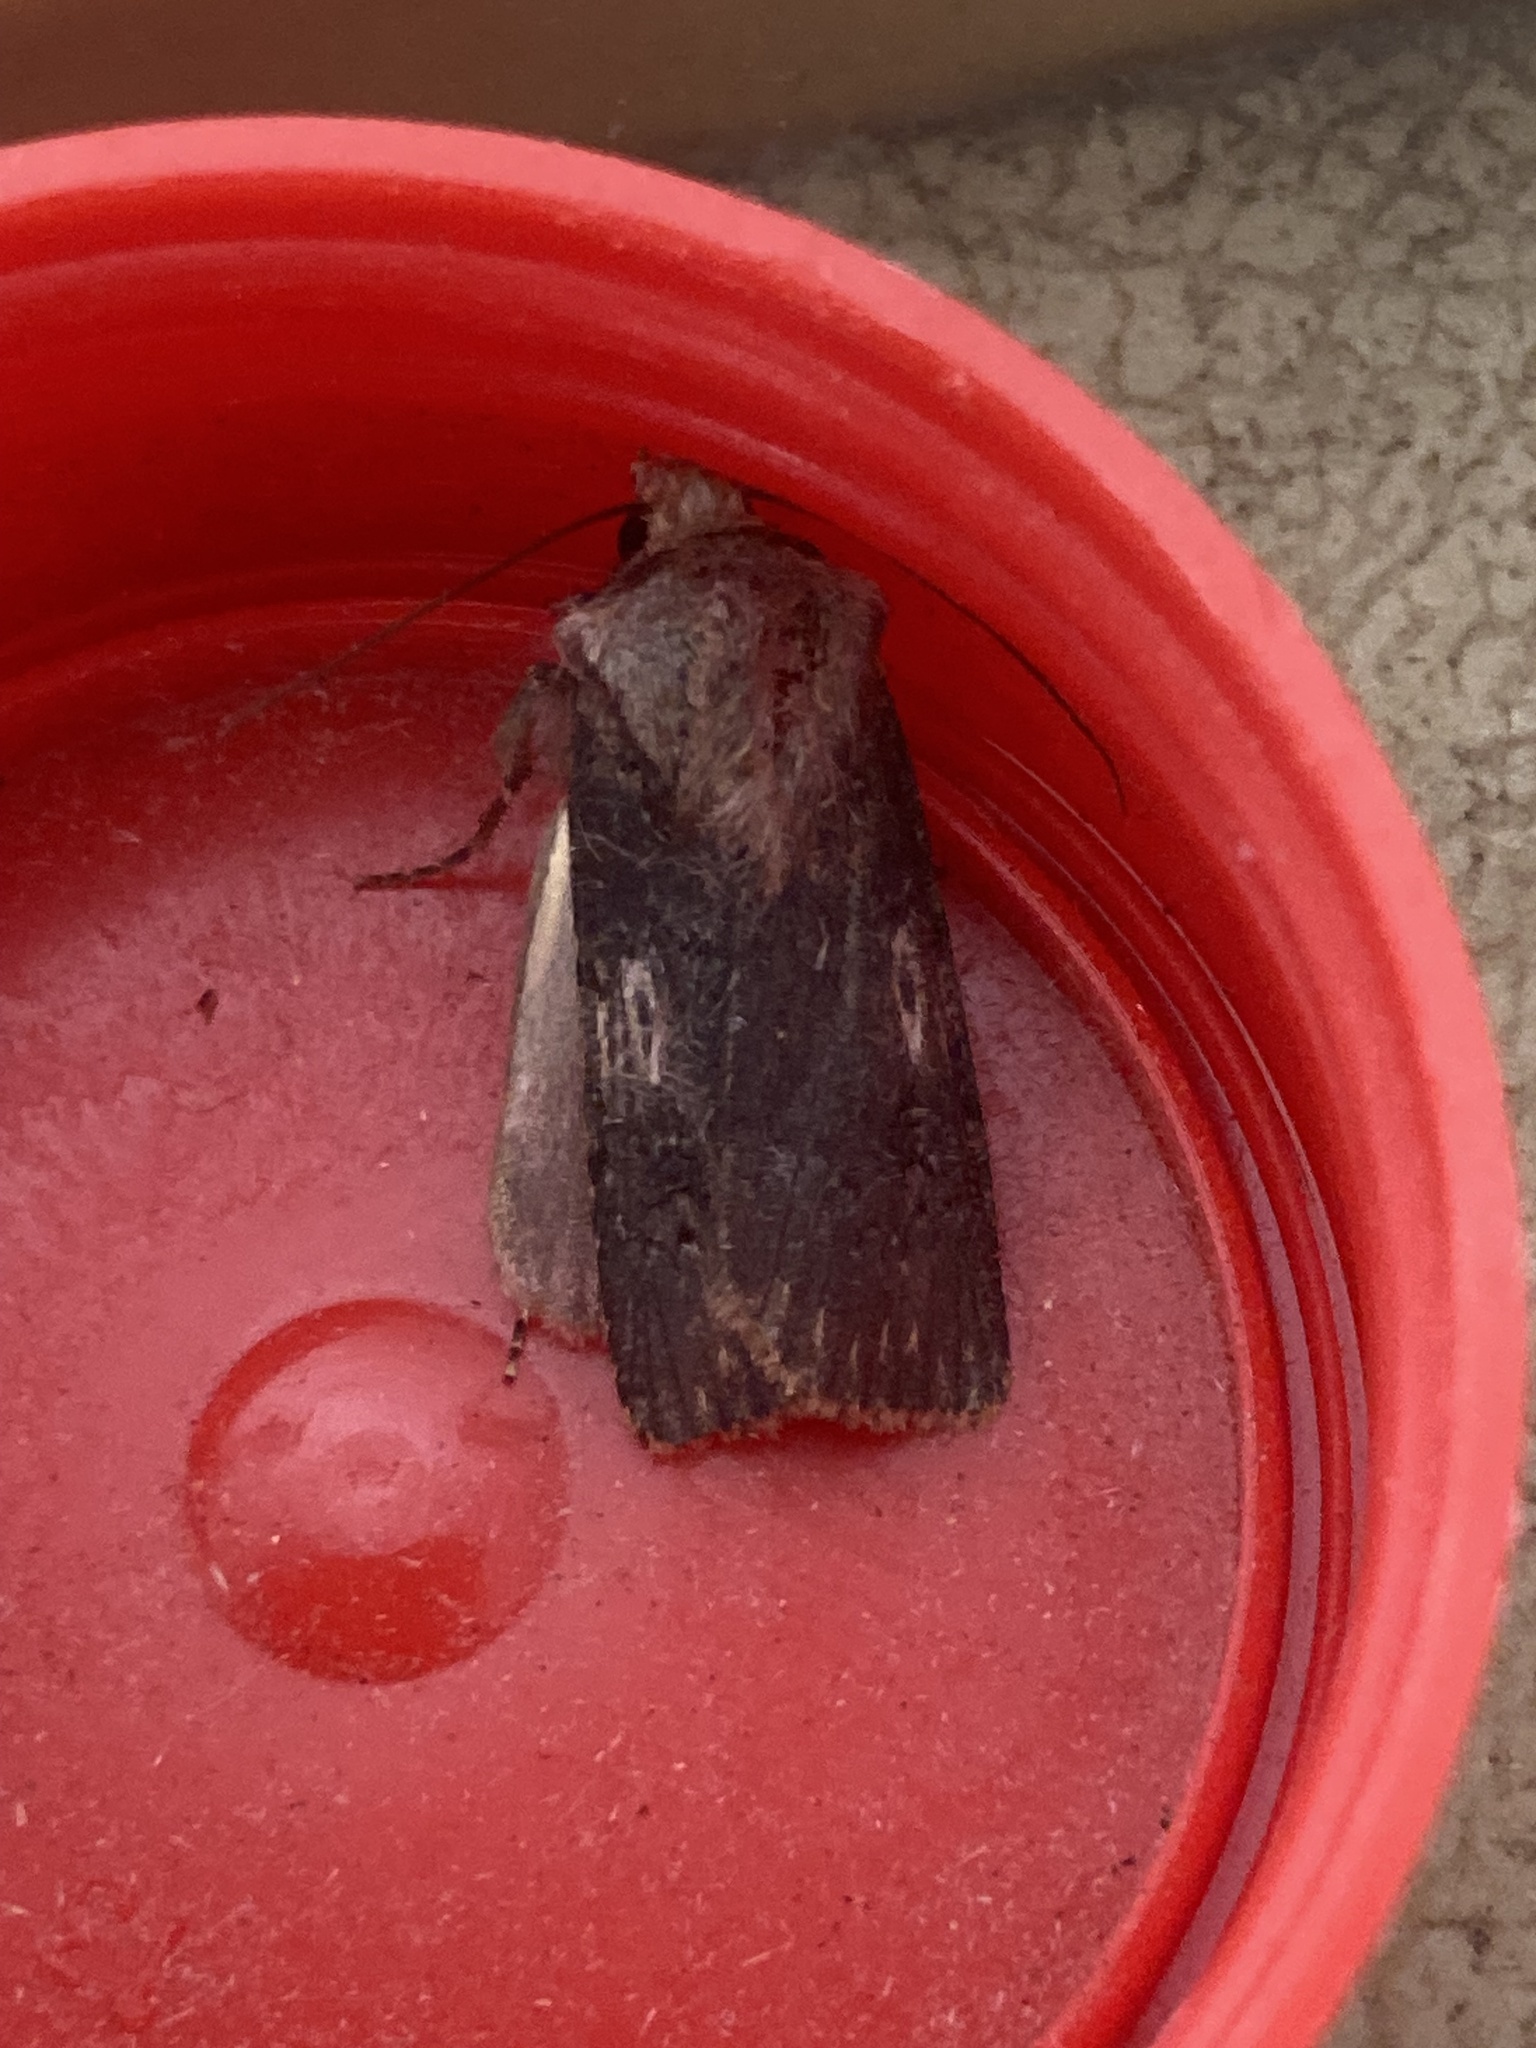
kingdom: Animalia
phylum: Arthropoda
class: Insecta
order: Lepidoptera
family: Noctuidae
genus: Agrotis
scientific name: Agrotis puta
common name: Shuttle-shaped dart
